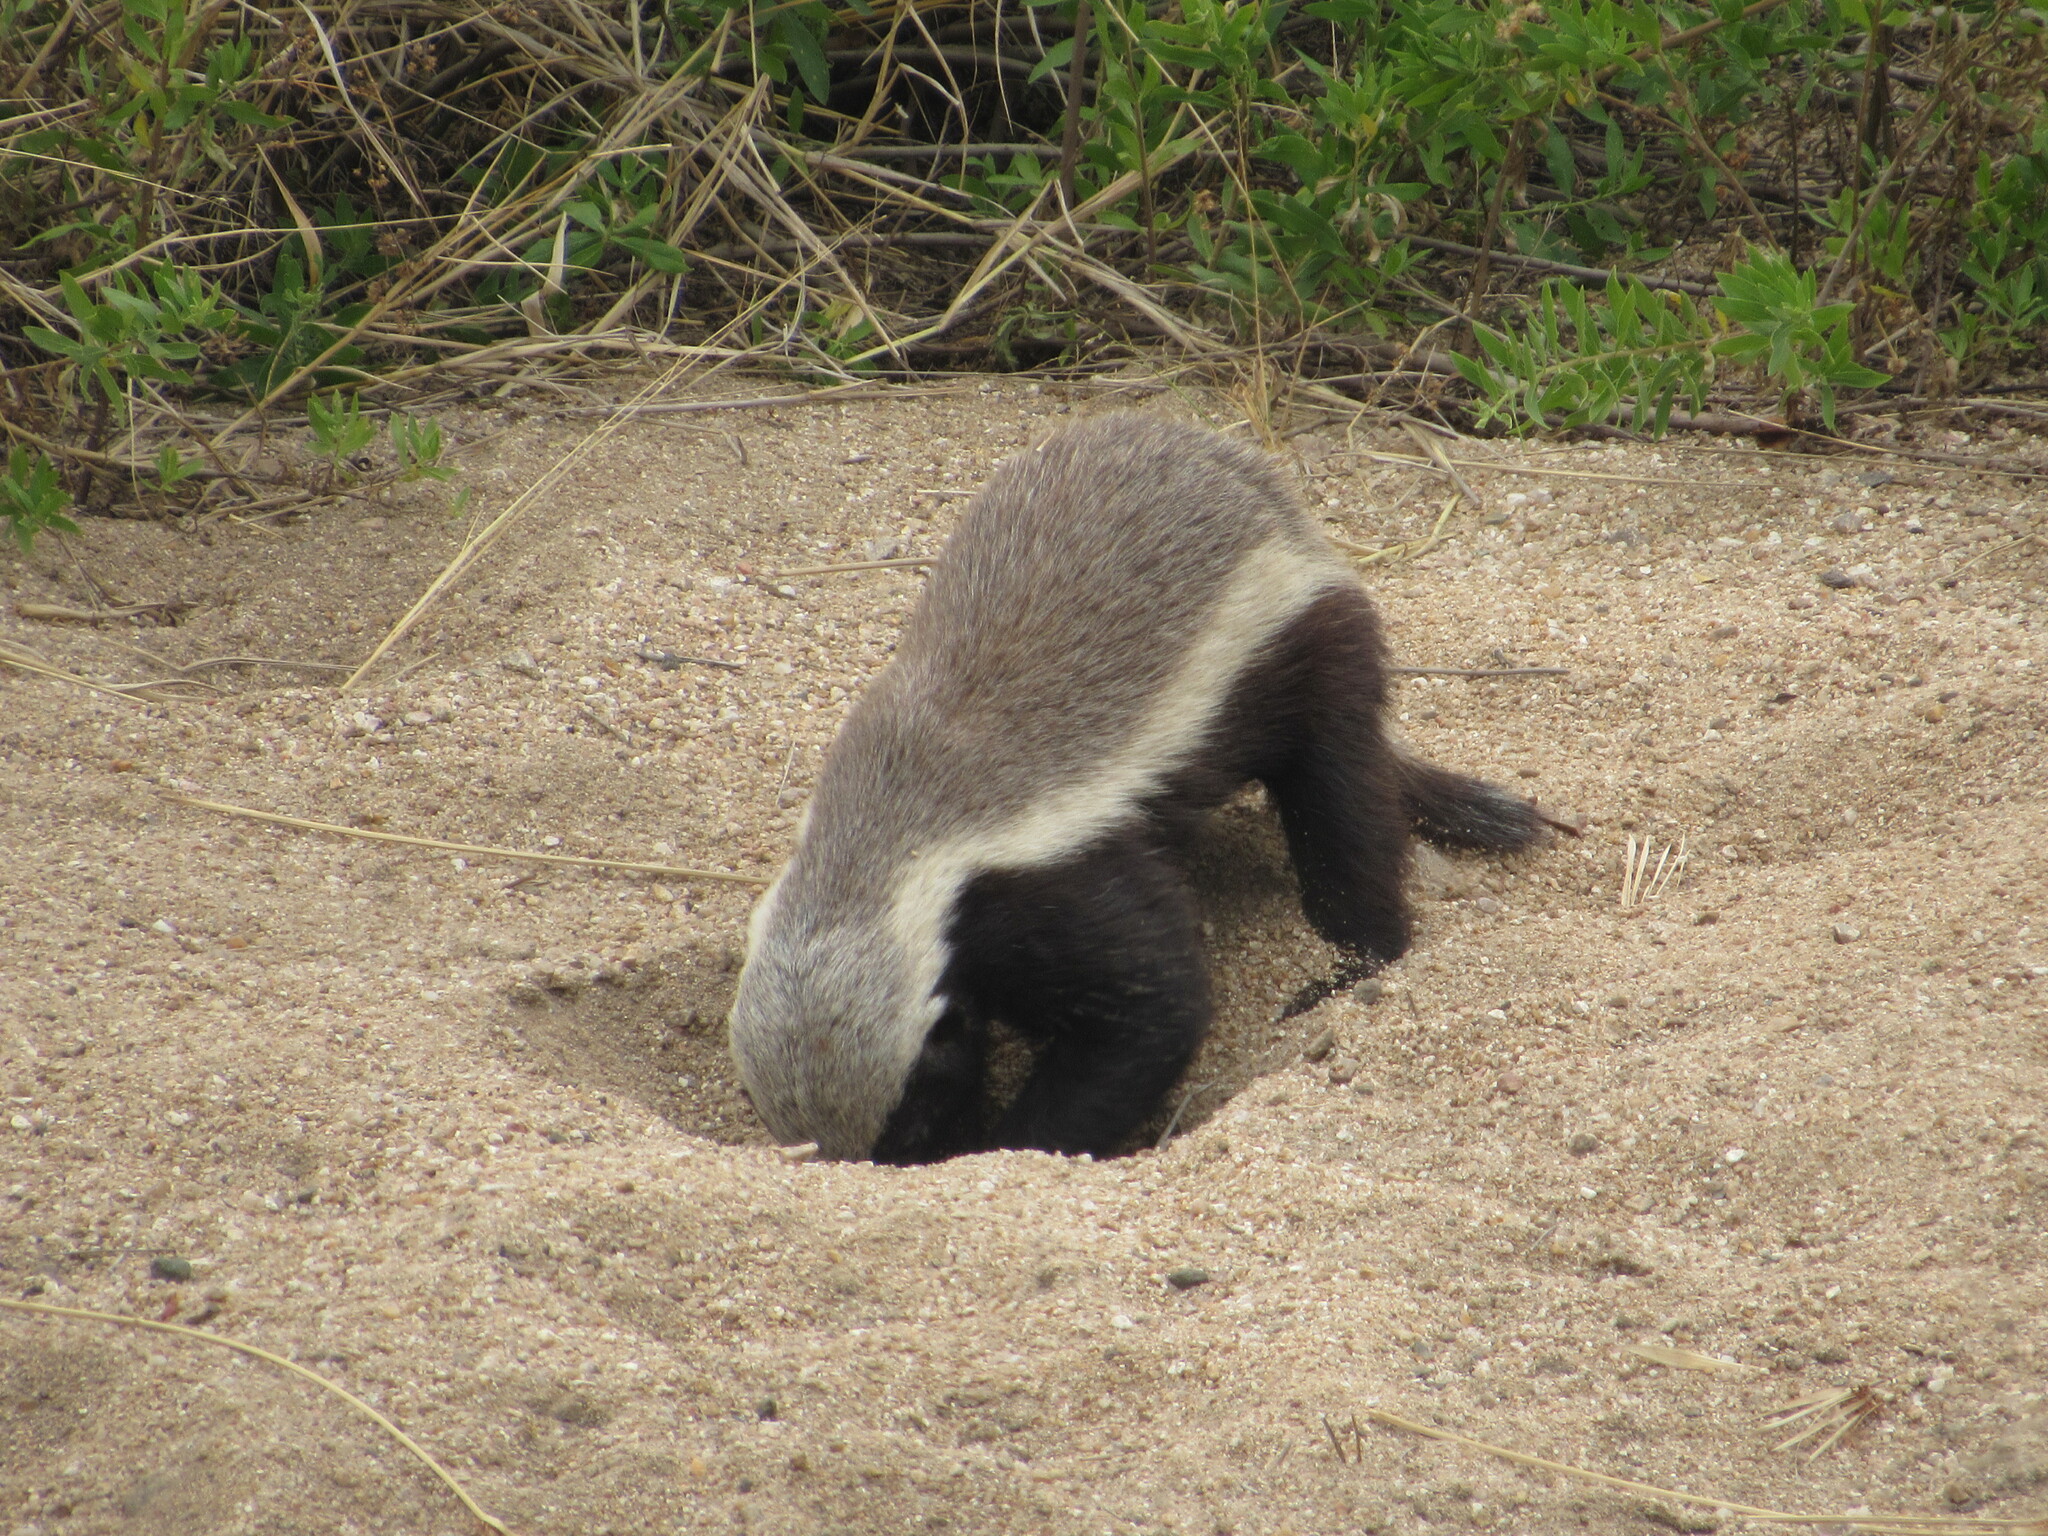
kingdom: Animalia
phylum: Chordata
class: Mammalia
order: Carnivora
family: Mustelidae
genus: Mellivora
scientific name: Mellivora capensis
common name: Honey badger
